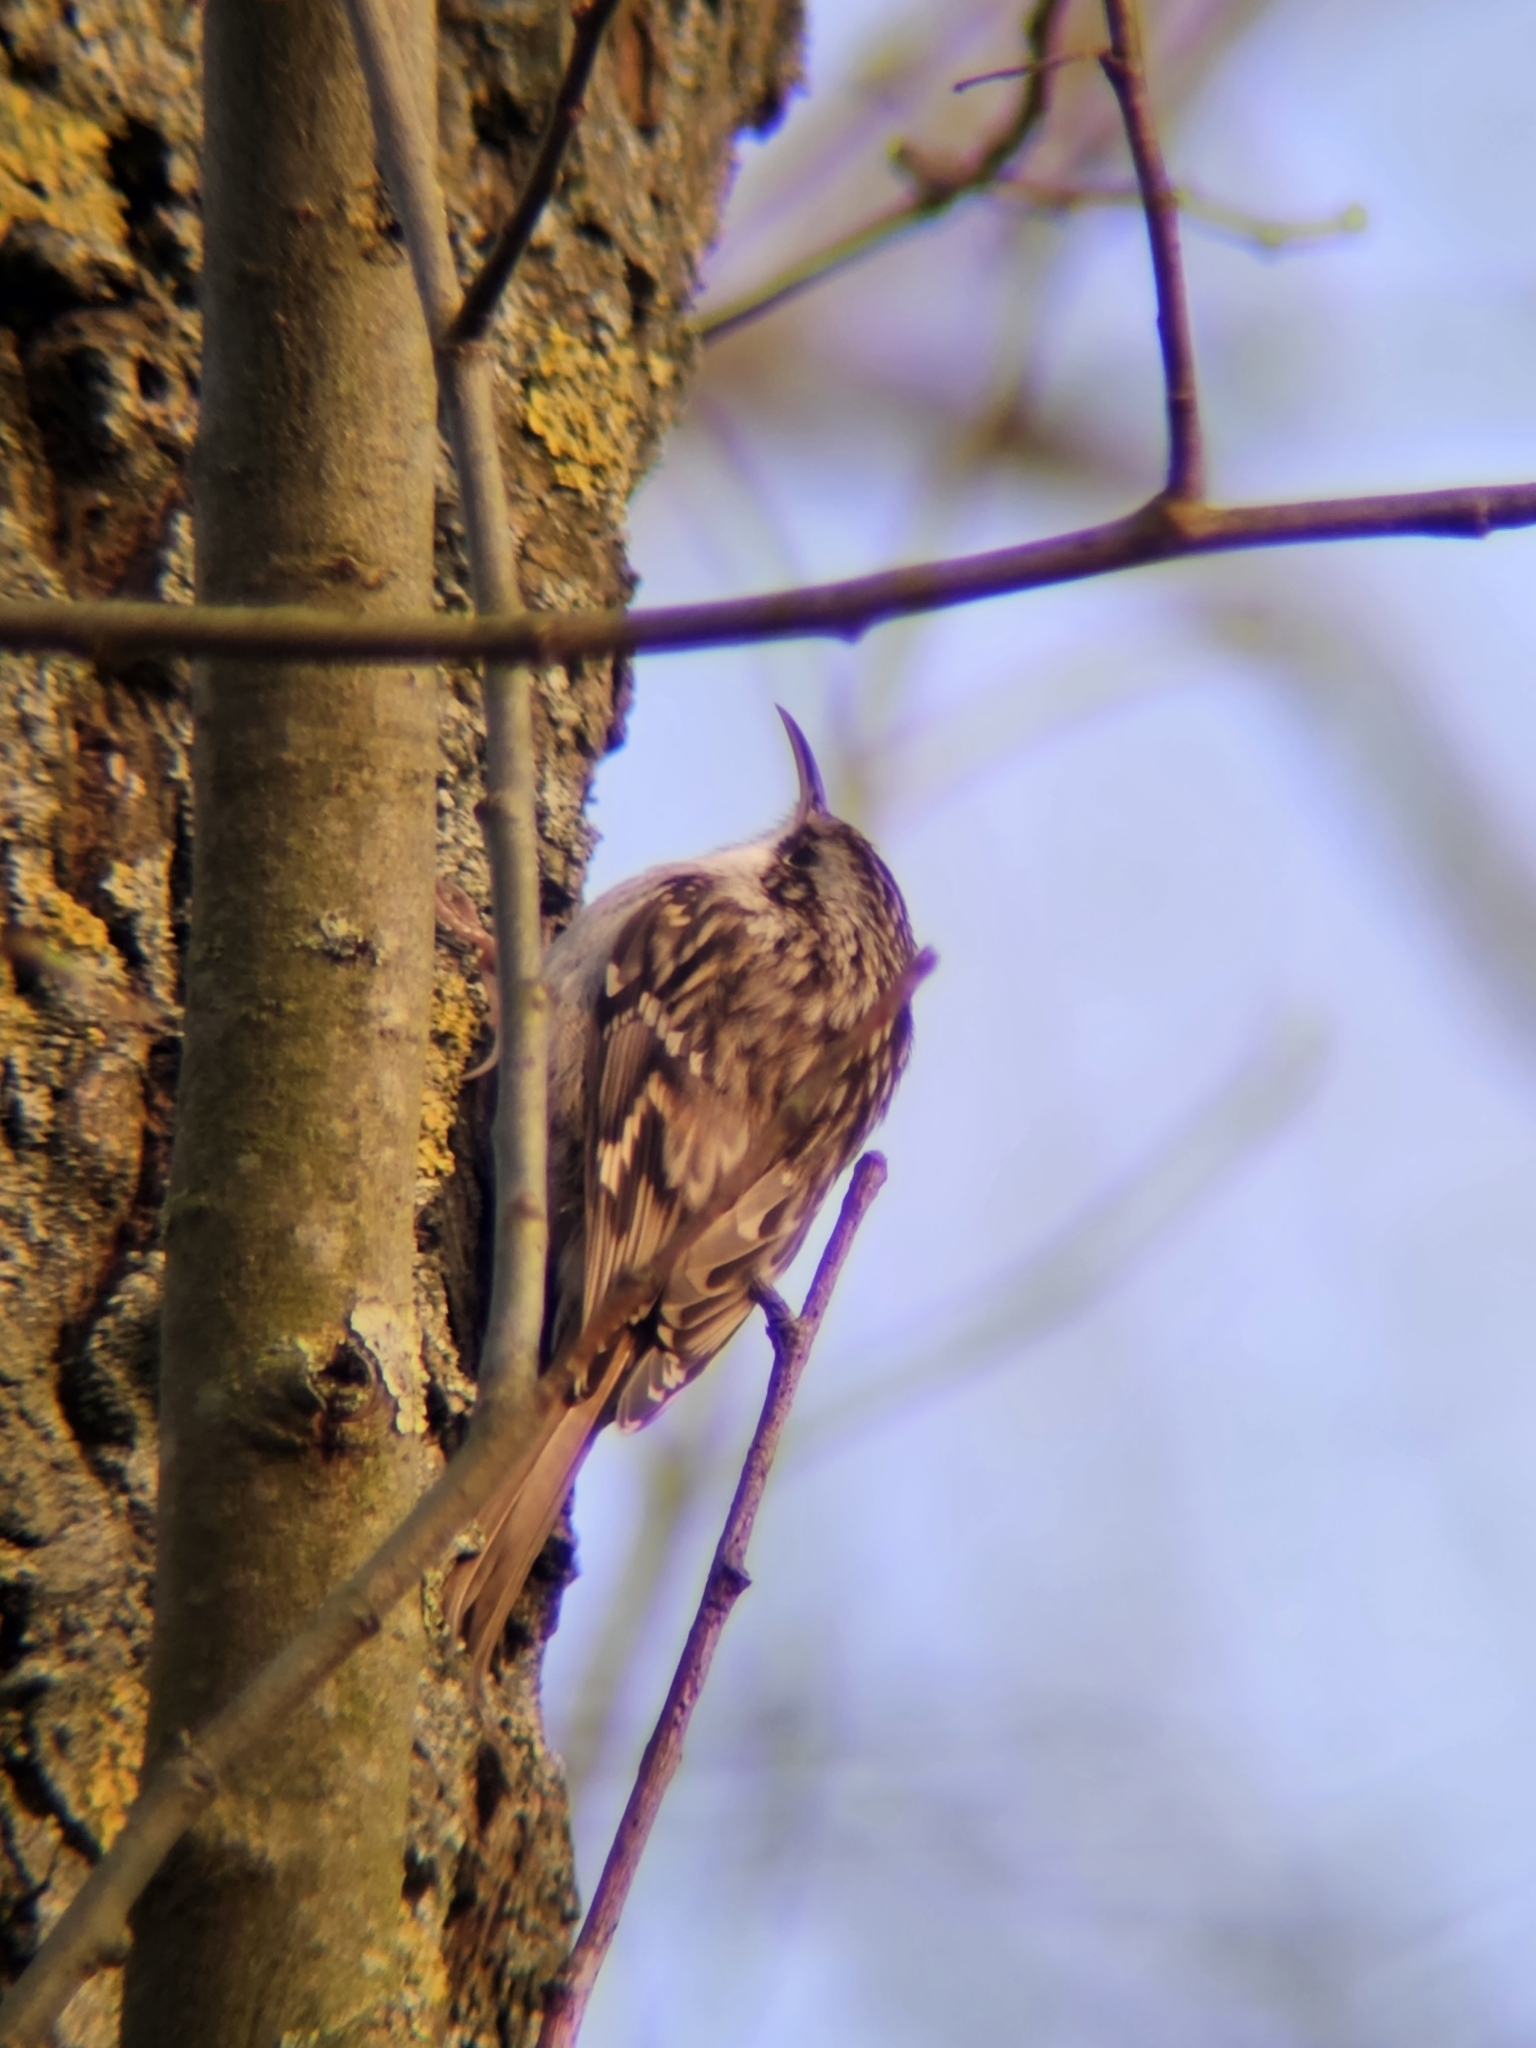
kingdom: Animalia
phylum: Chordata
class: Aves
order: Passeriformes
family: Certhiidae
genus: Certhia
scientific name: Certhia brachydactyla
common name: Short-toed treecreeper
